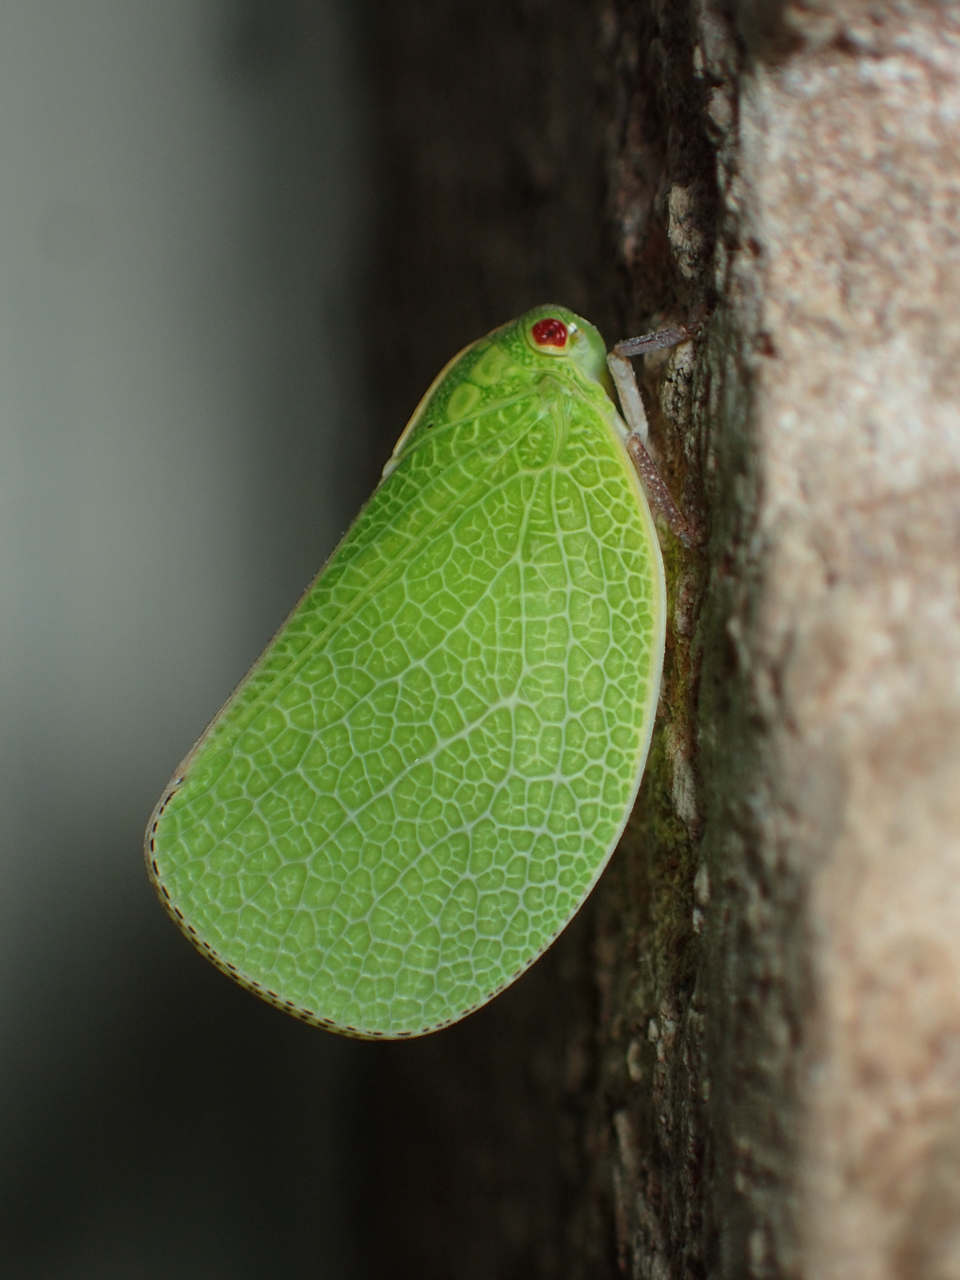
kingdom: Animalia
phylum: Arthropoda
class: Insecta
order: Hemiptera
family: Acanaloniidae
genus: Acanalonia
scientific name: Acanalonia servillei
